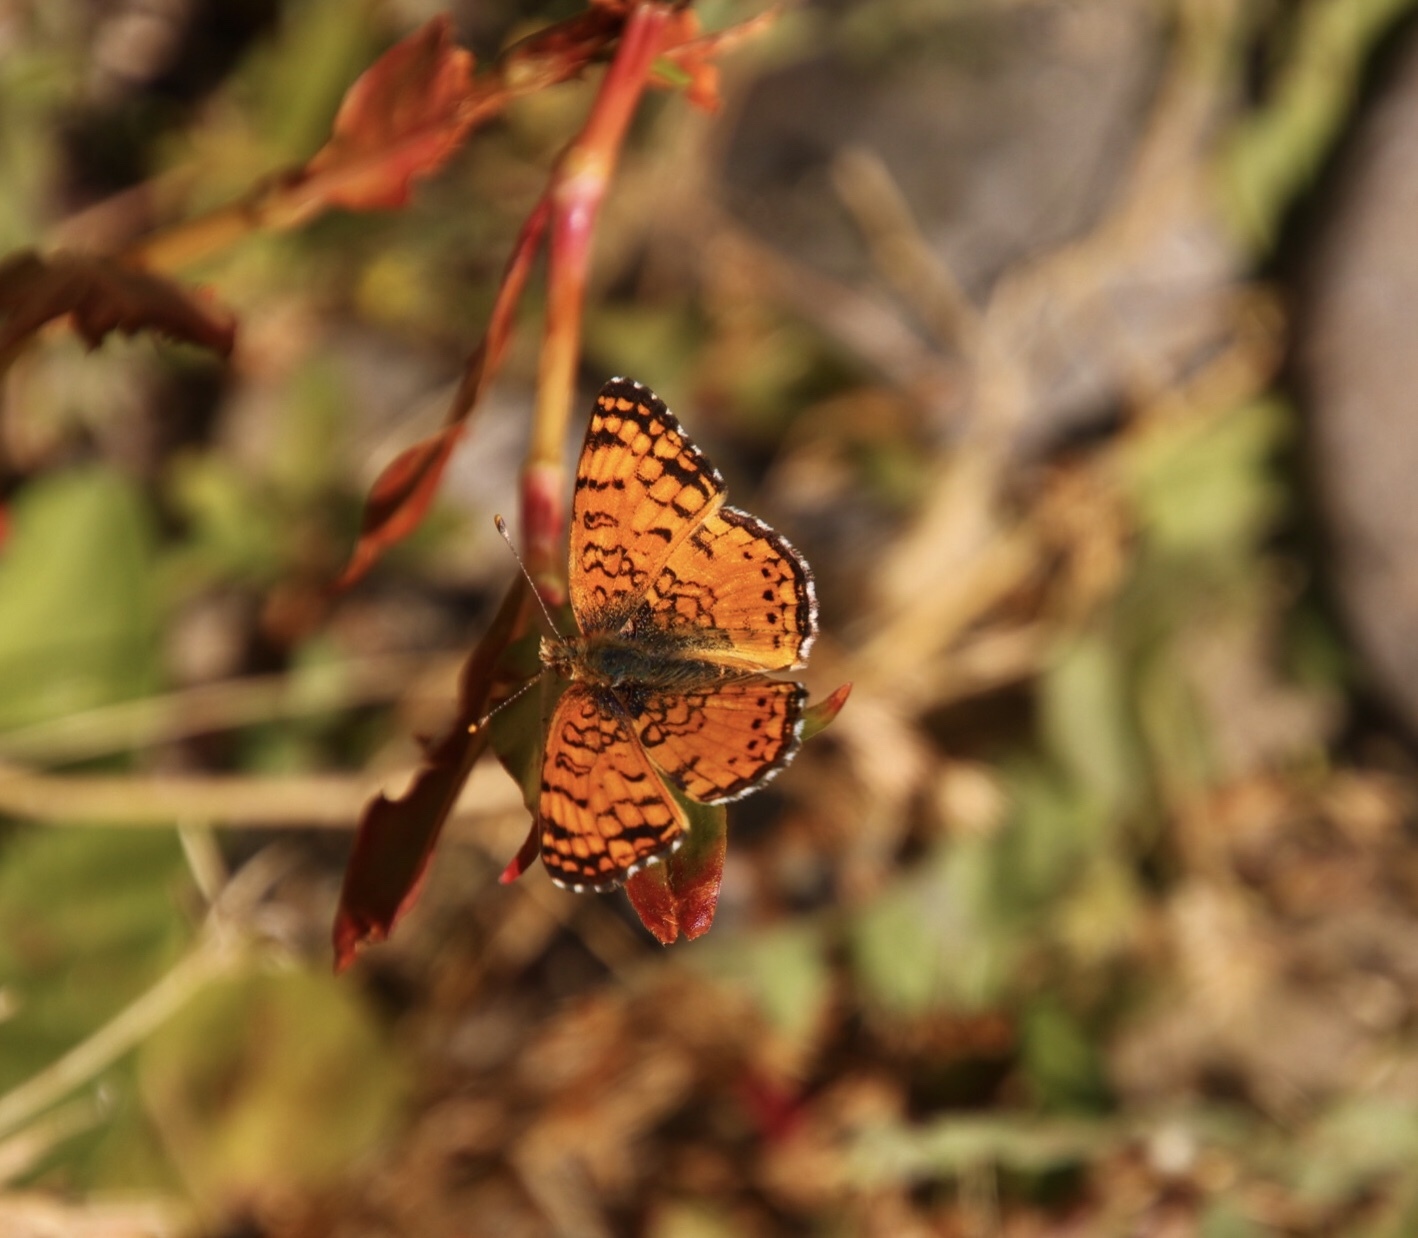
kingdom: Animalia
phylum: Arthropoda
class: Insecta
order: Lepidoptera
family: Nymphalidae
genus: Eresia
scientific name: Eresia aveyrona
